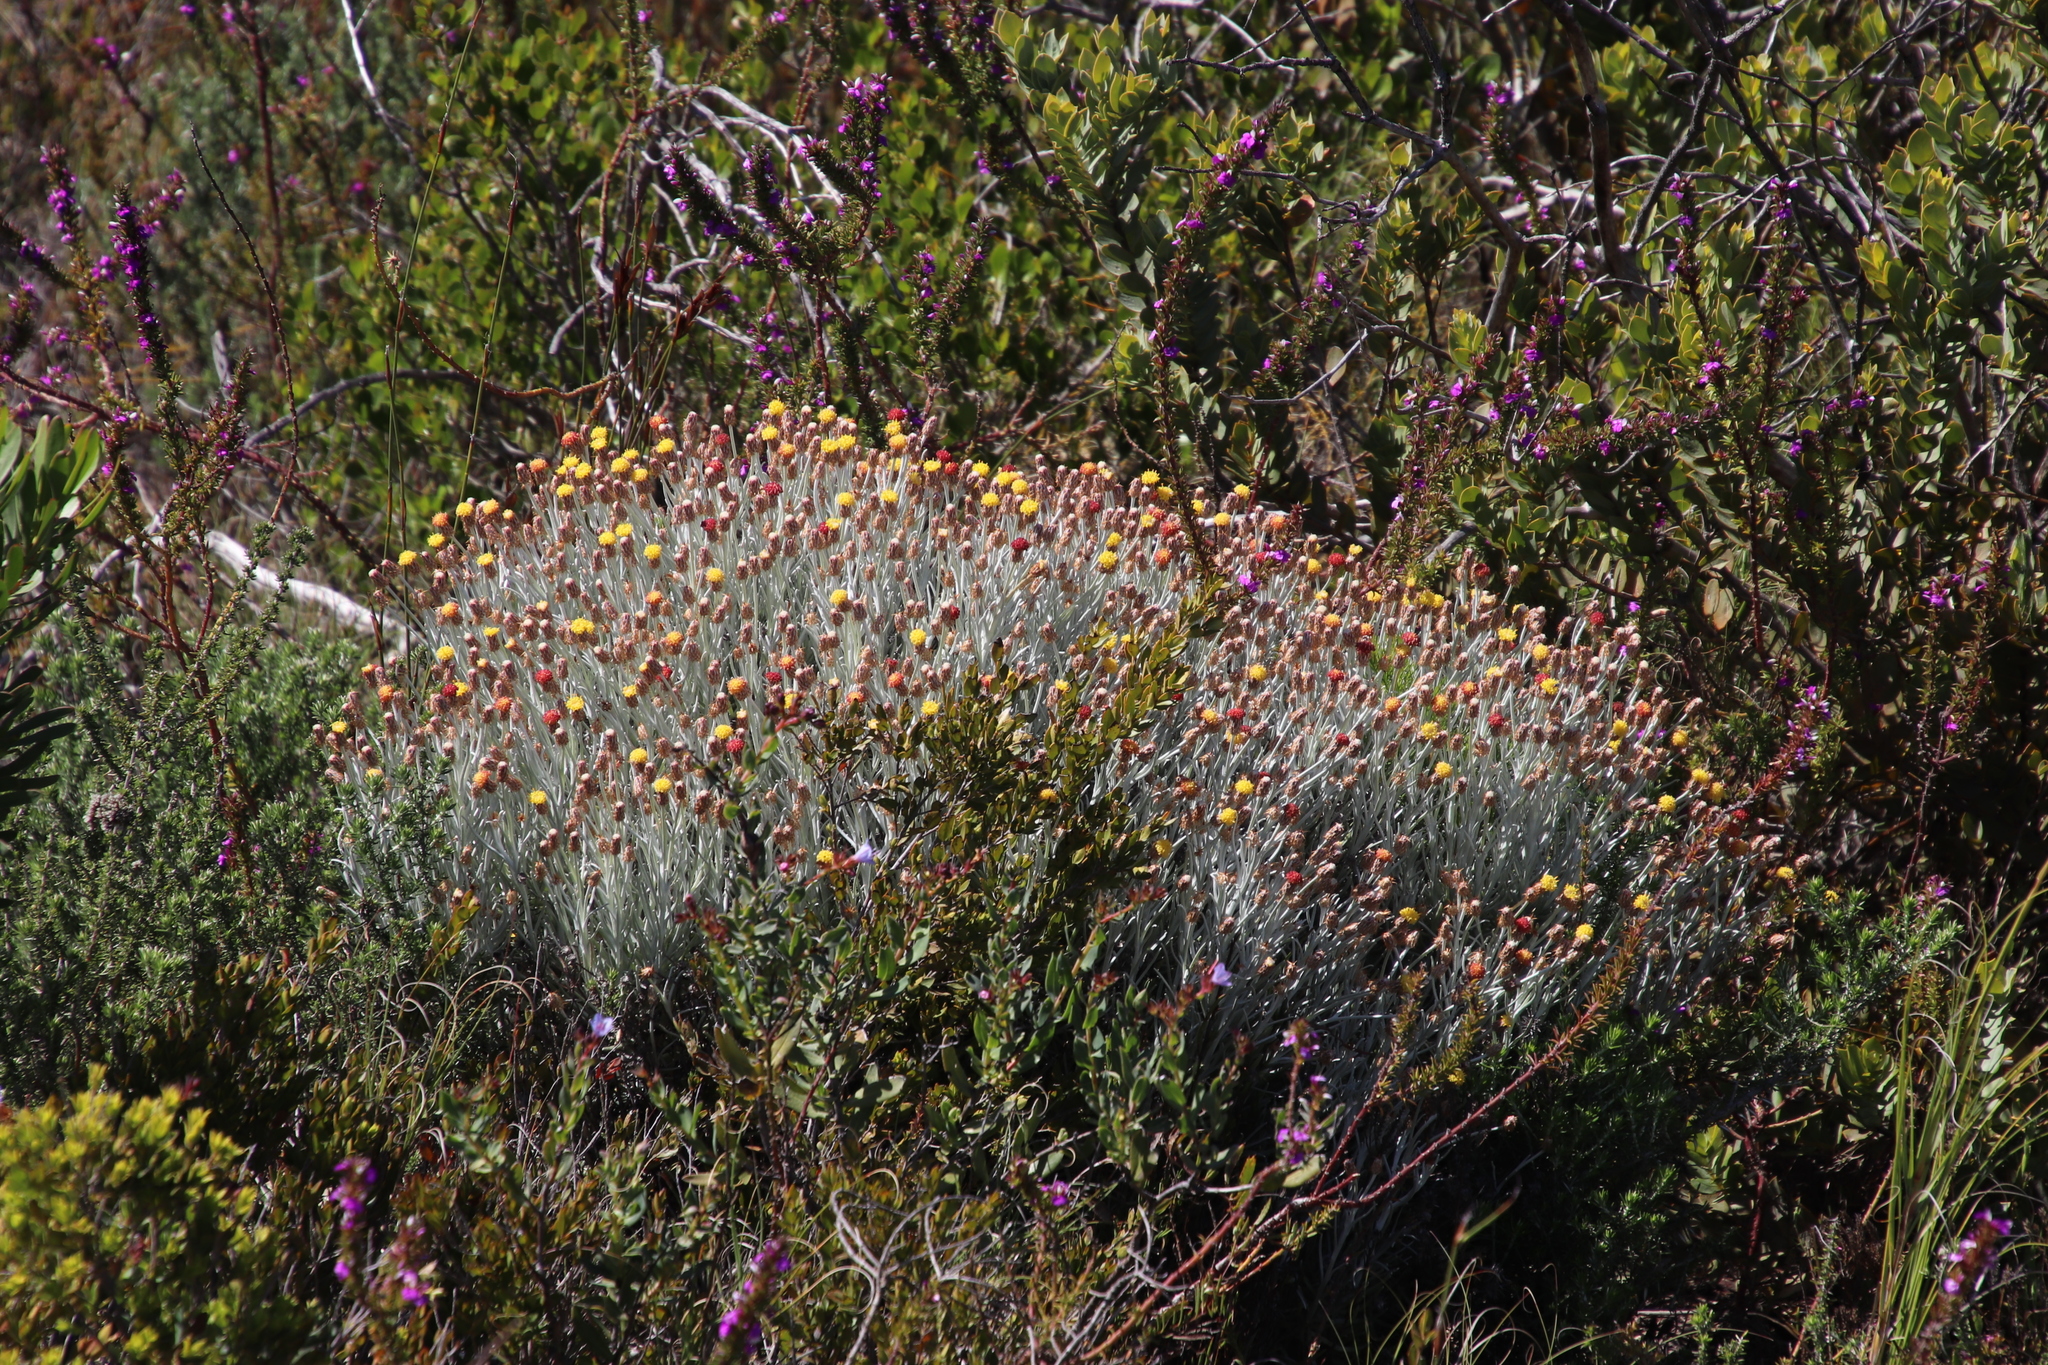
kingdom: Plantae
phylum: Tracheophyta
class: Magnoliopsida
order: Asterales
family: Asteraceae
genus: Syncarpha
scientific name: Syncarpha gnaphaloides
